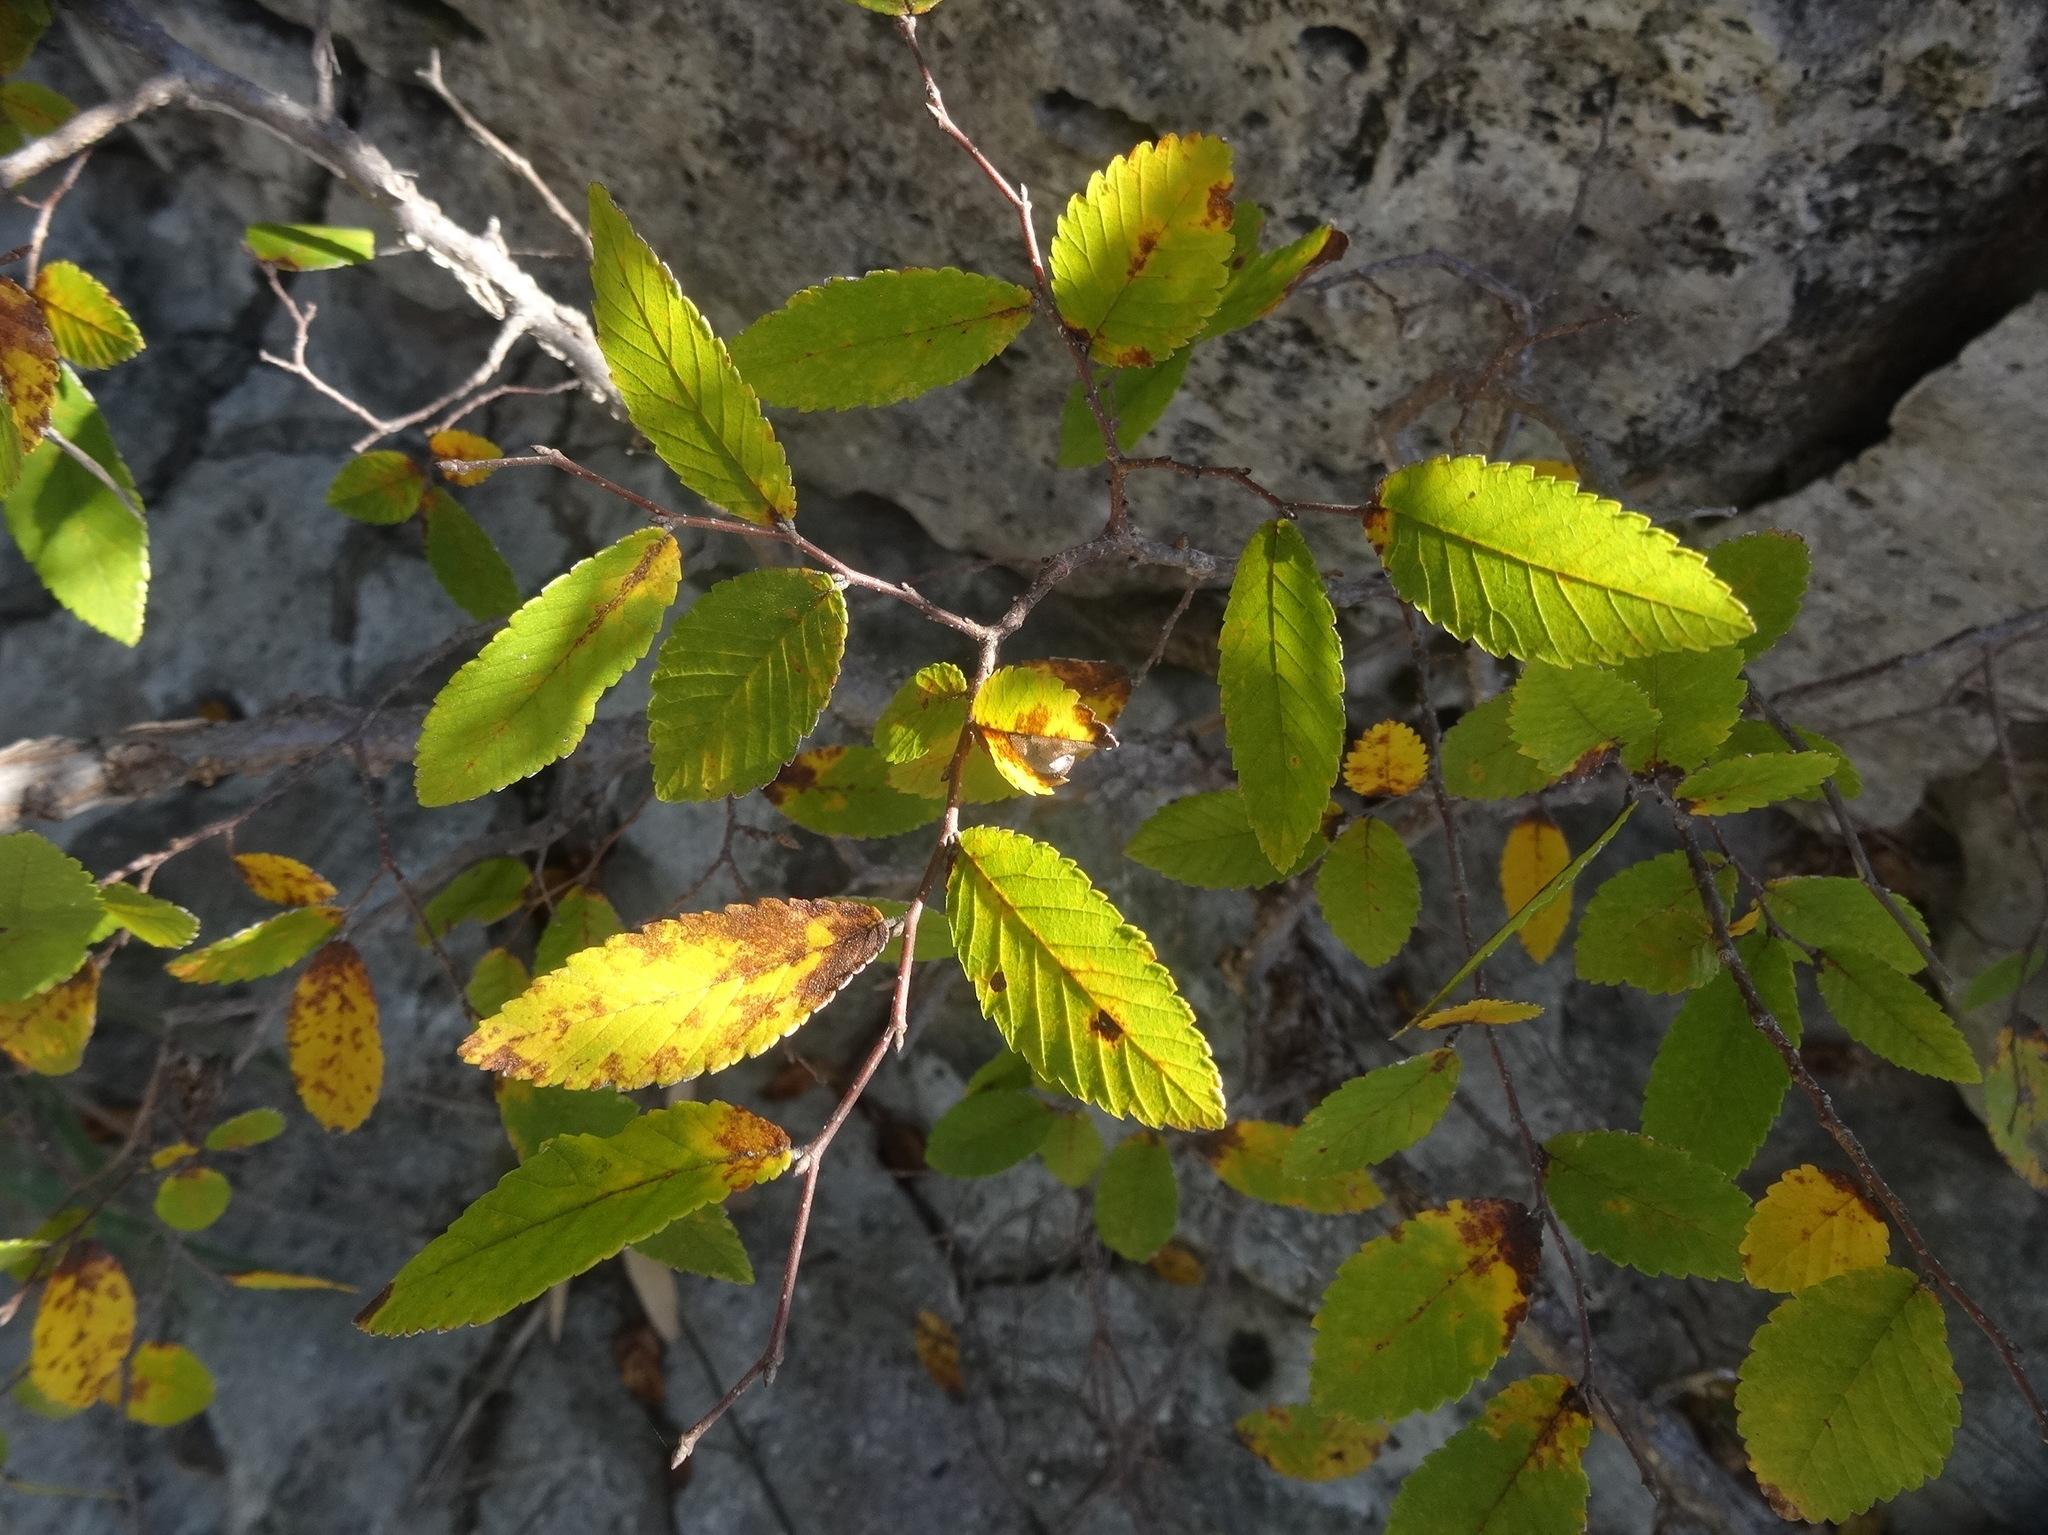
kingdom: Plantae
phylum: Tracheophyta
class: Magnoliopsida
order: Rosales
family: Ulmaceae
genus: Ulmus
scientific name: Ulmus crassifolia
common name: Basket elm
